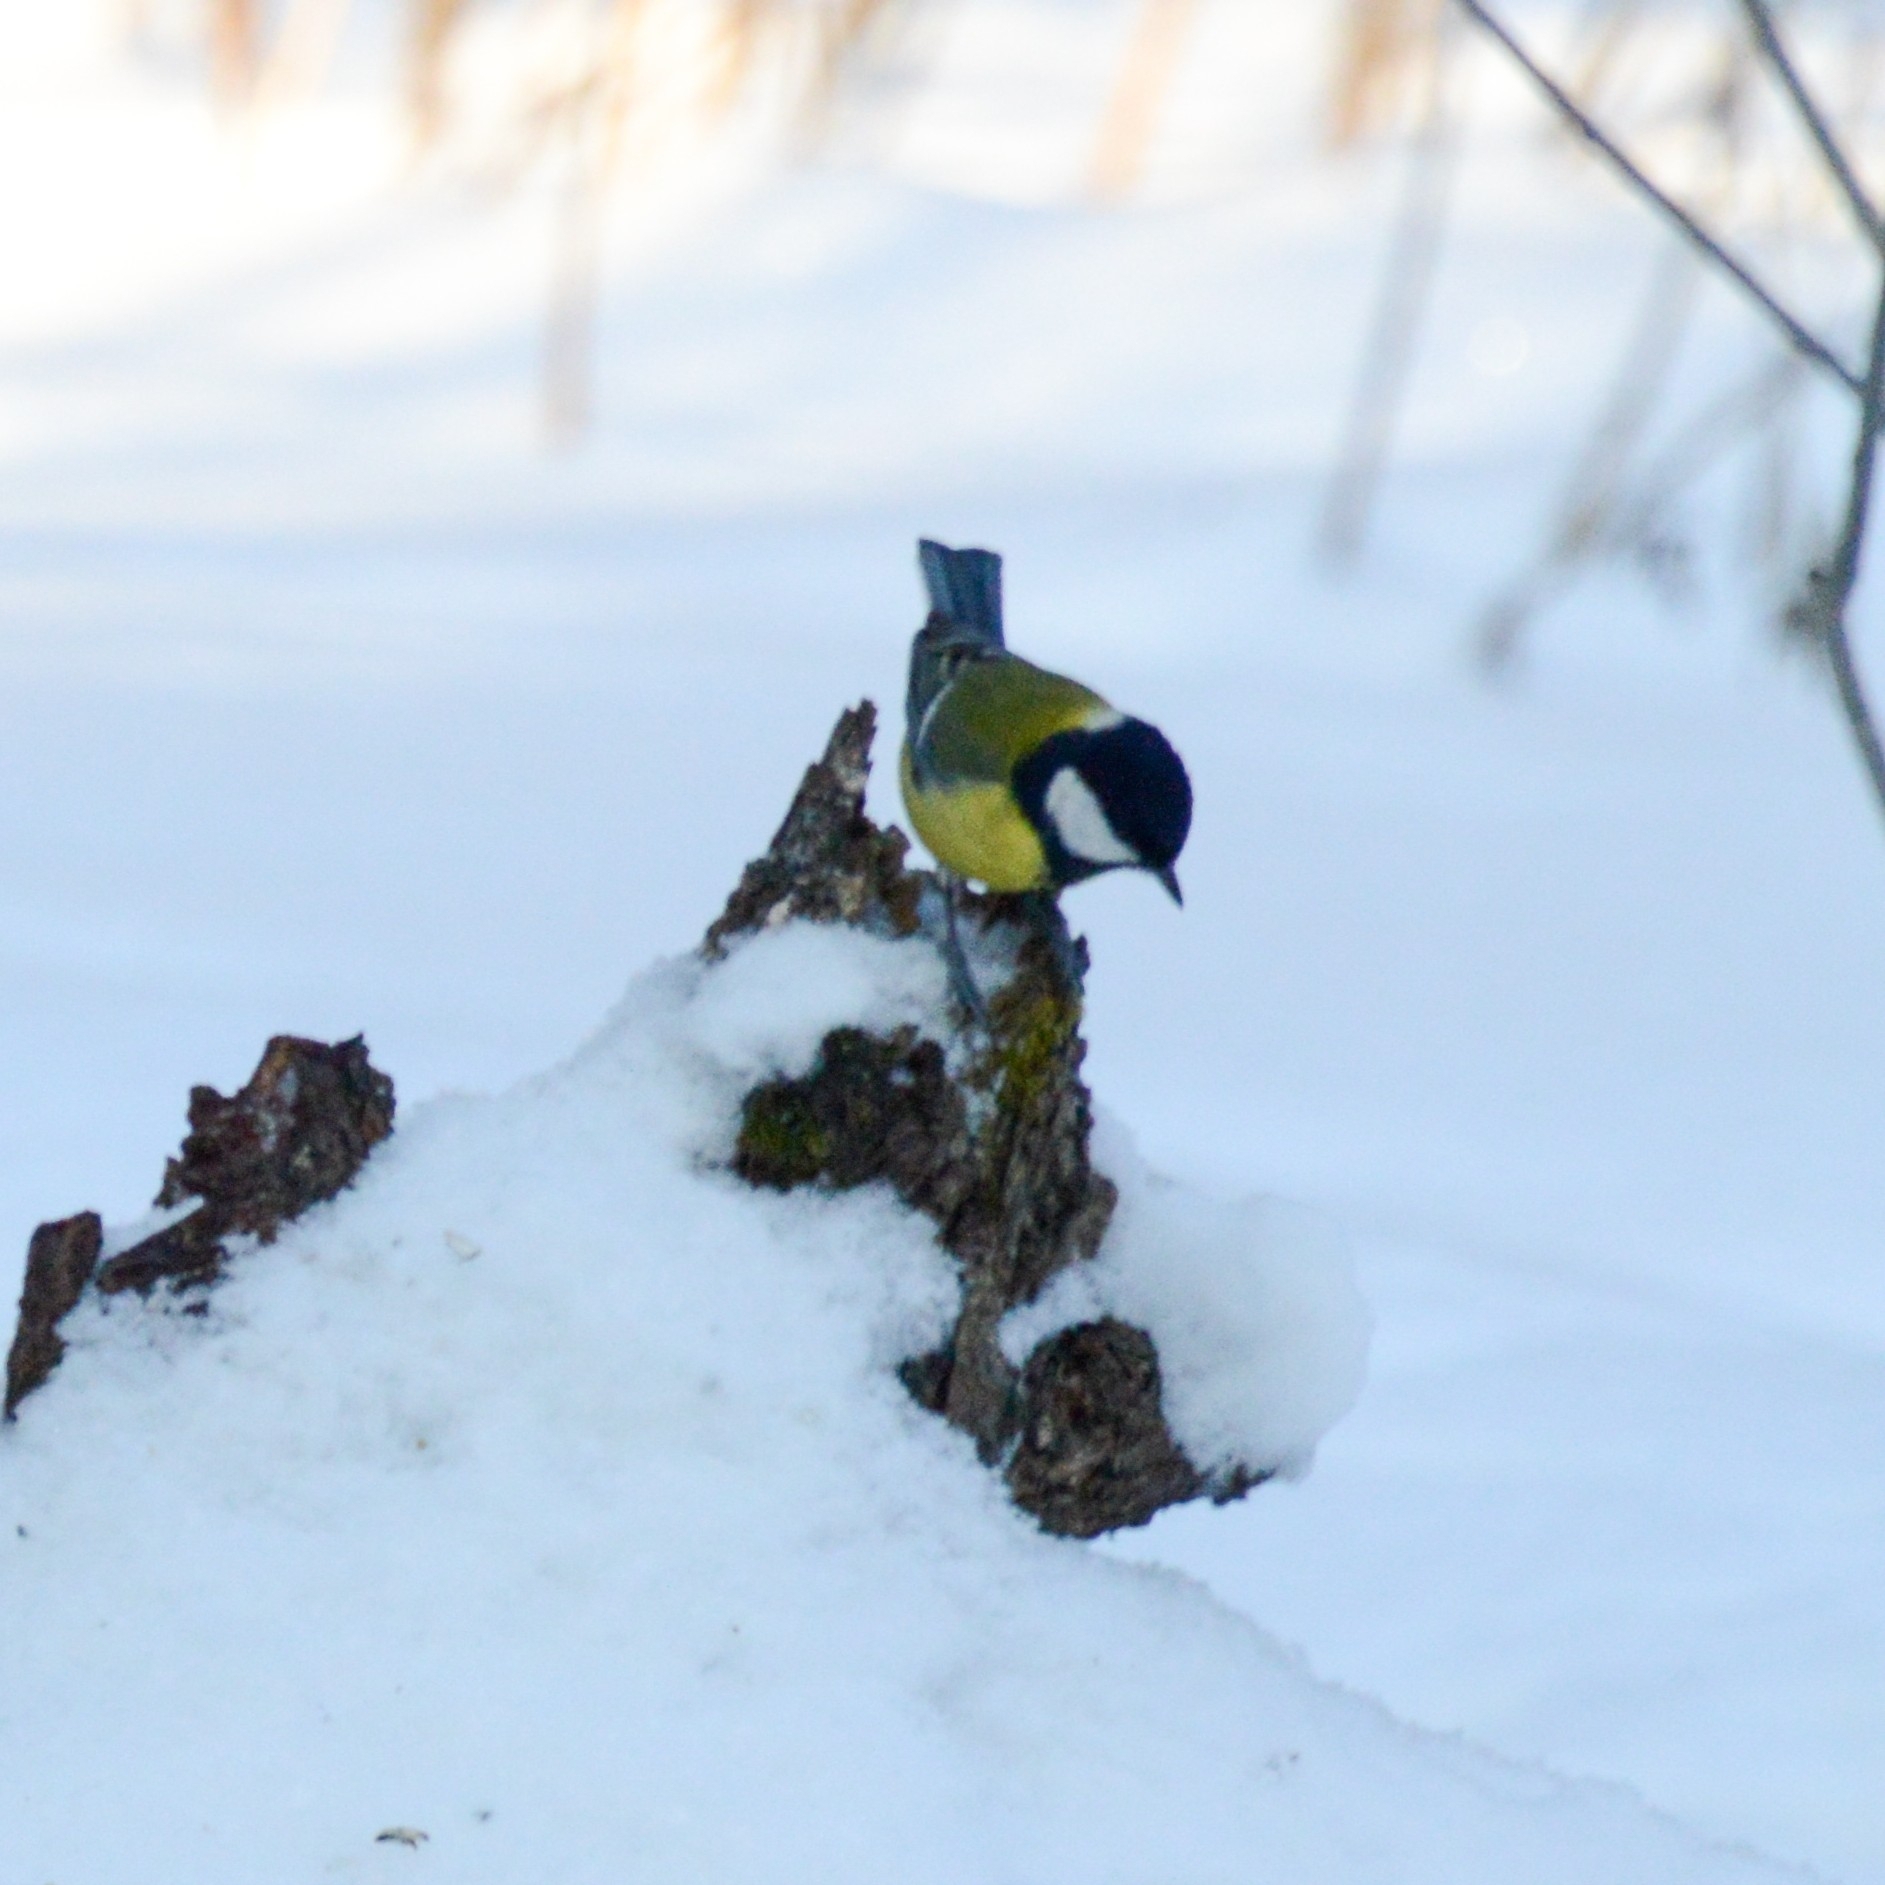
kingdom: Animalia
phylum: Chordata
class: Aves
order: Passeriformes
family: Paridae
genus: Parus
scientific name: Parus major
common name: Great tit
